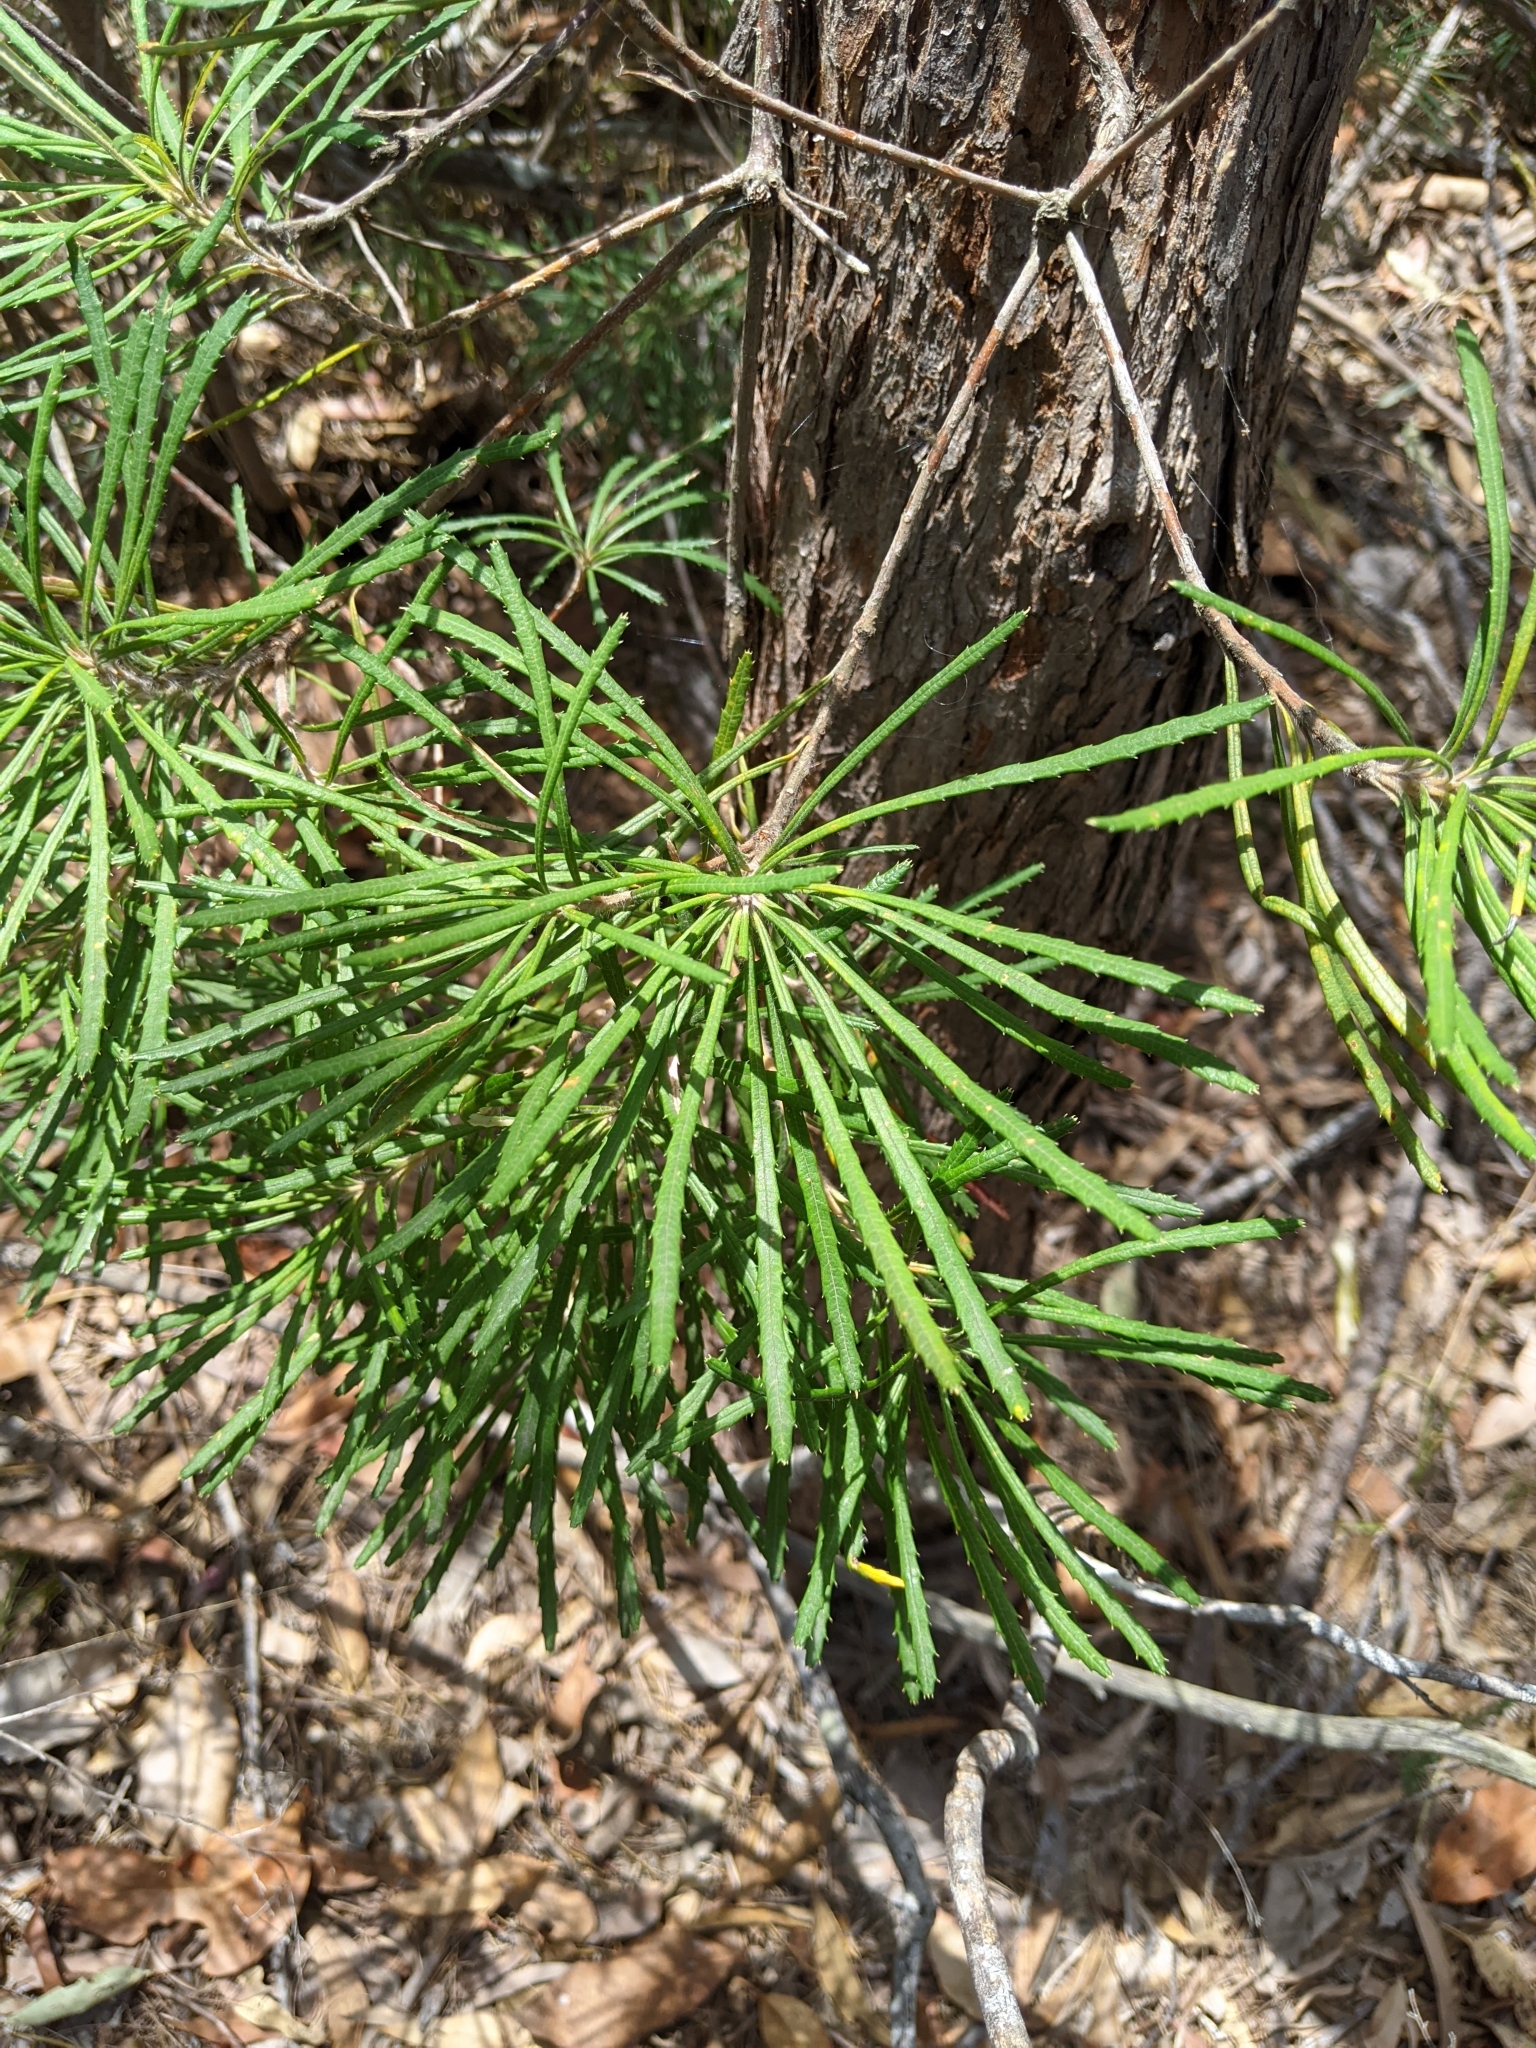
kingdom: Plantae
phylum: Tracheophyta
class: Magnoliopsida
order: Proteales
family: Proteaceae
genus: Banksia
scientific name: Banksia spinulosa
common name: Hairpin banksia
